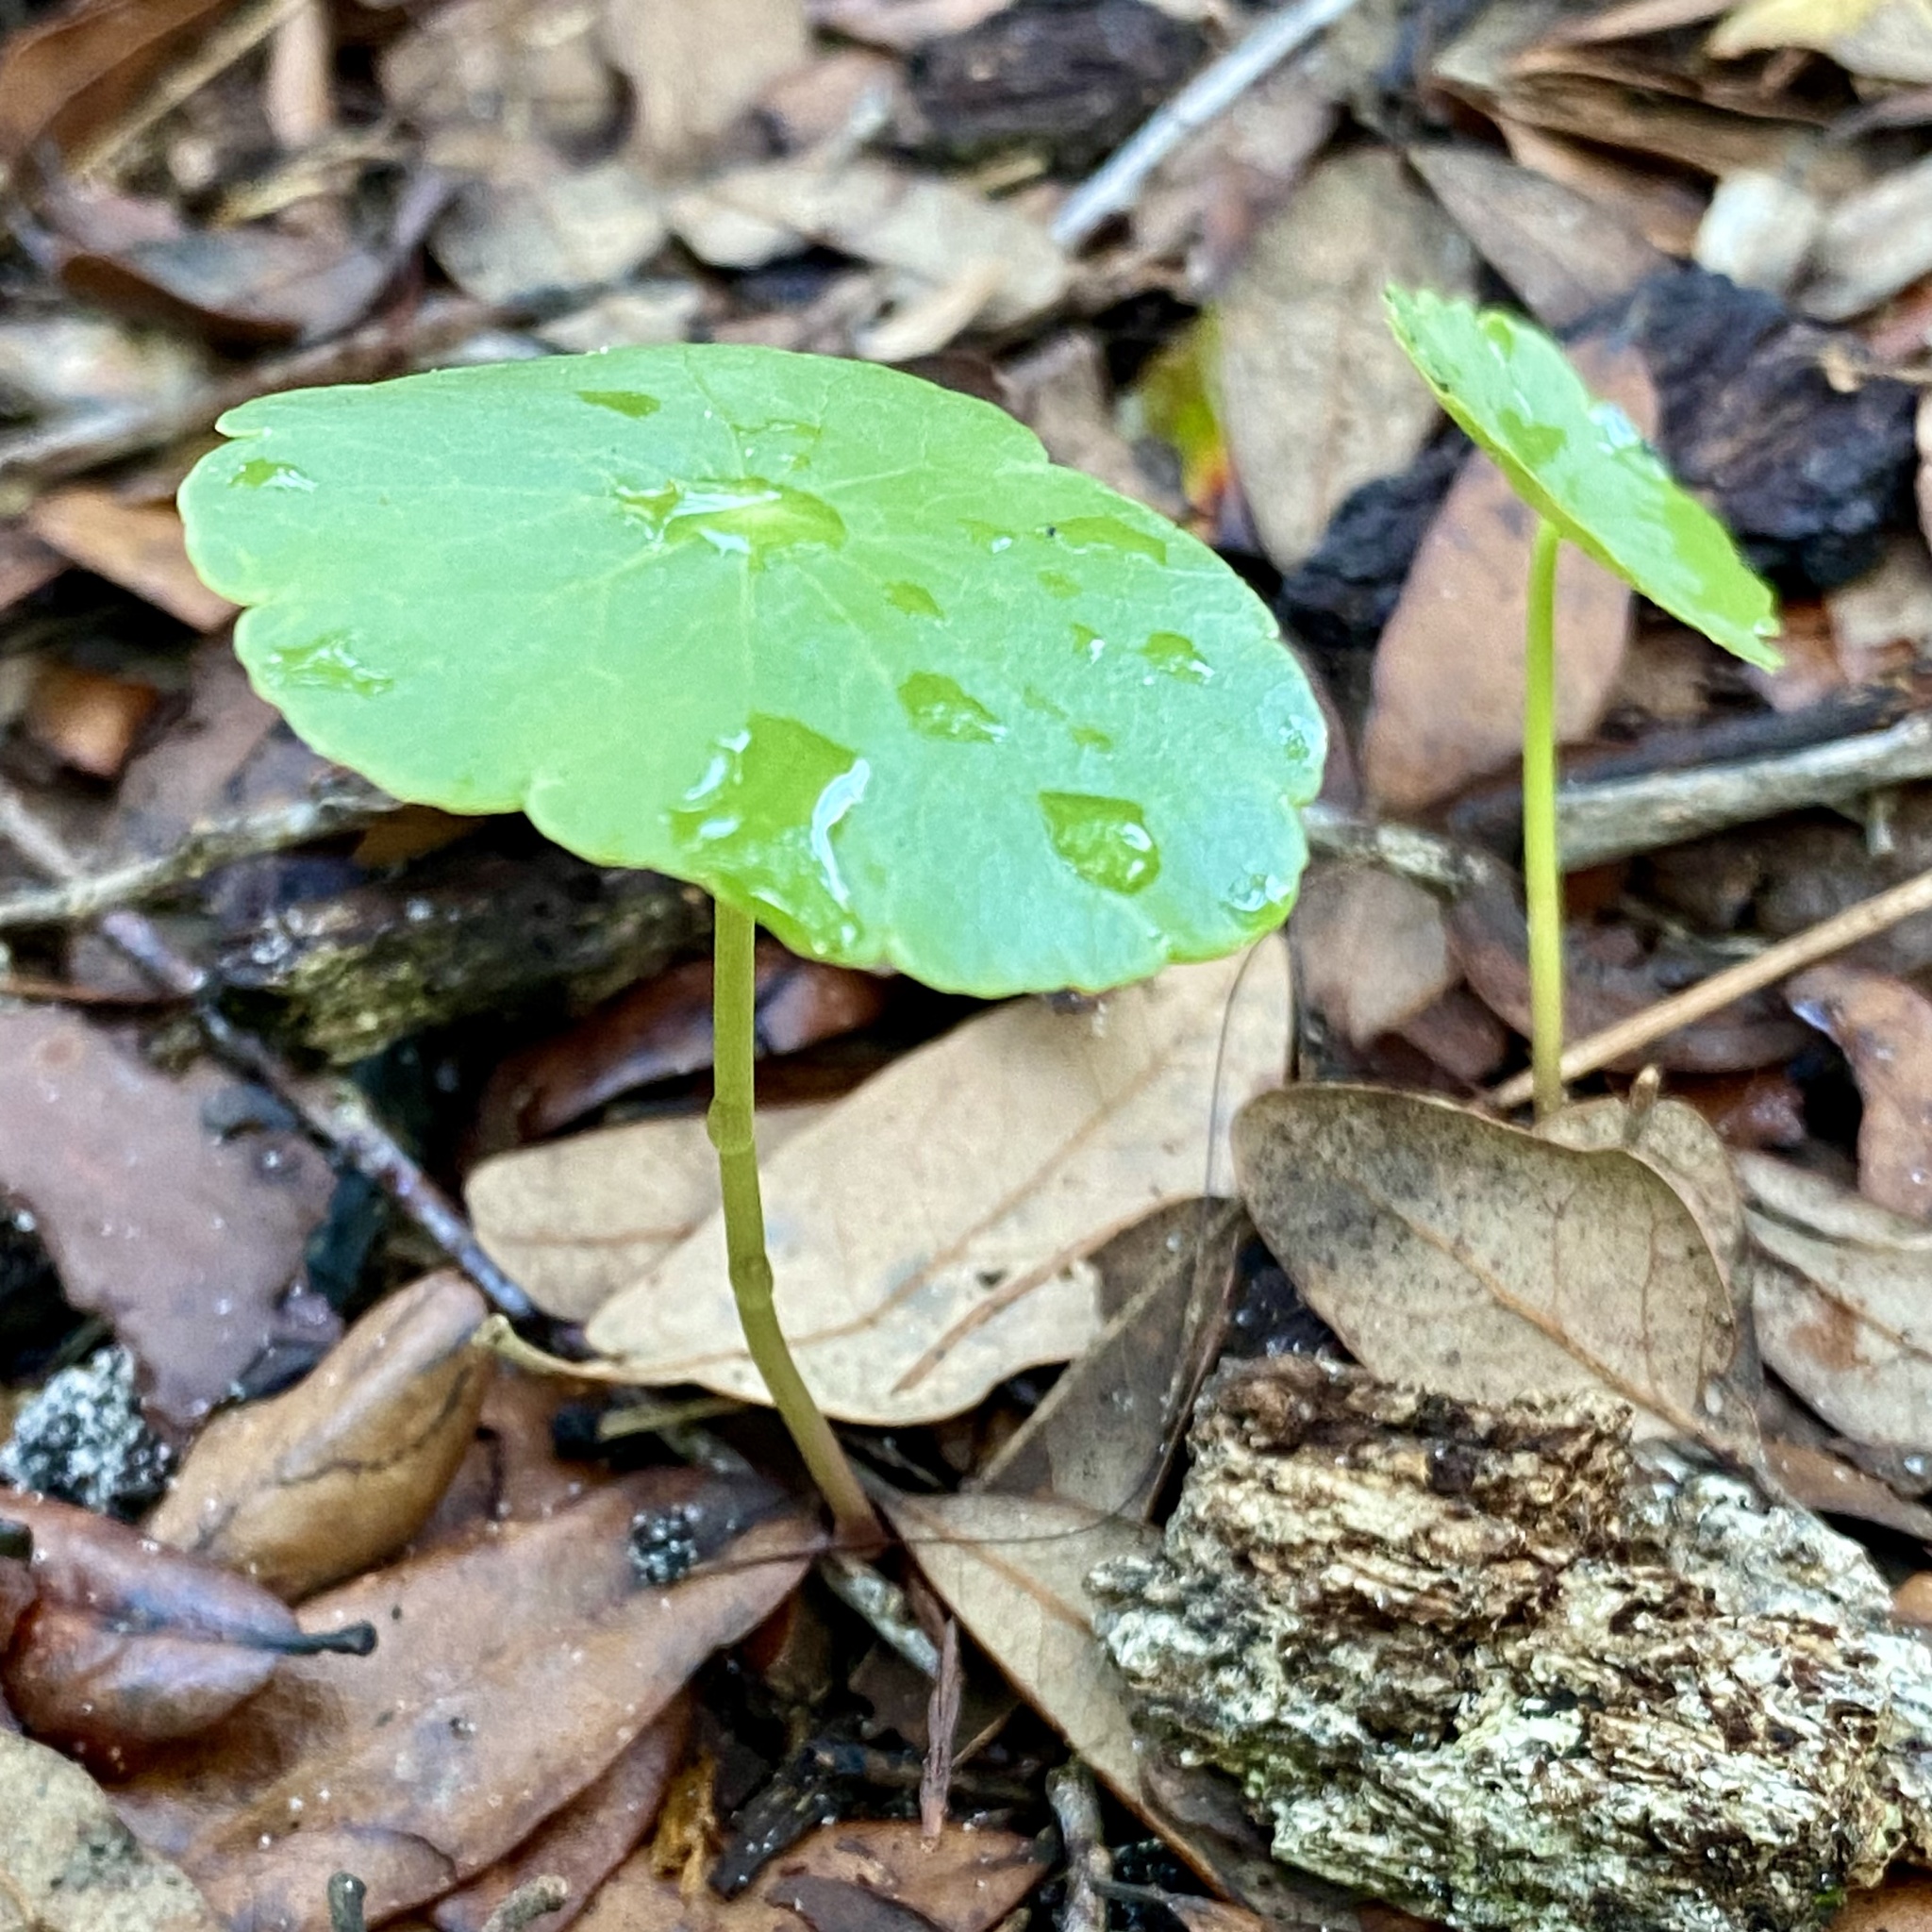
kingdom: Plantae
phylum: Tracheophyta
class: Magnoliopsida
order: Apiales
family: Araliaceae
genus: Hydrocotyle
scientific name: Hydrocotyle bonariensis
